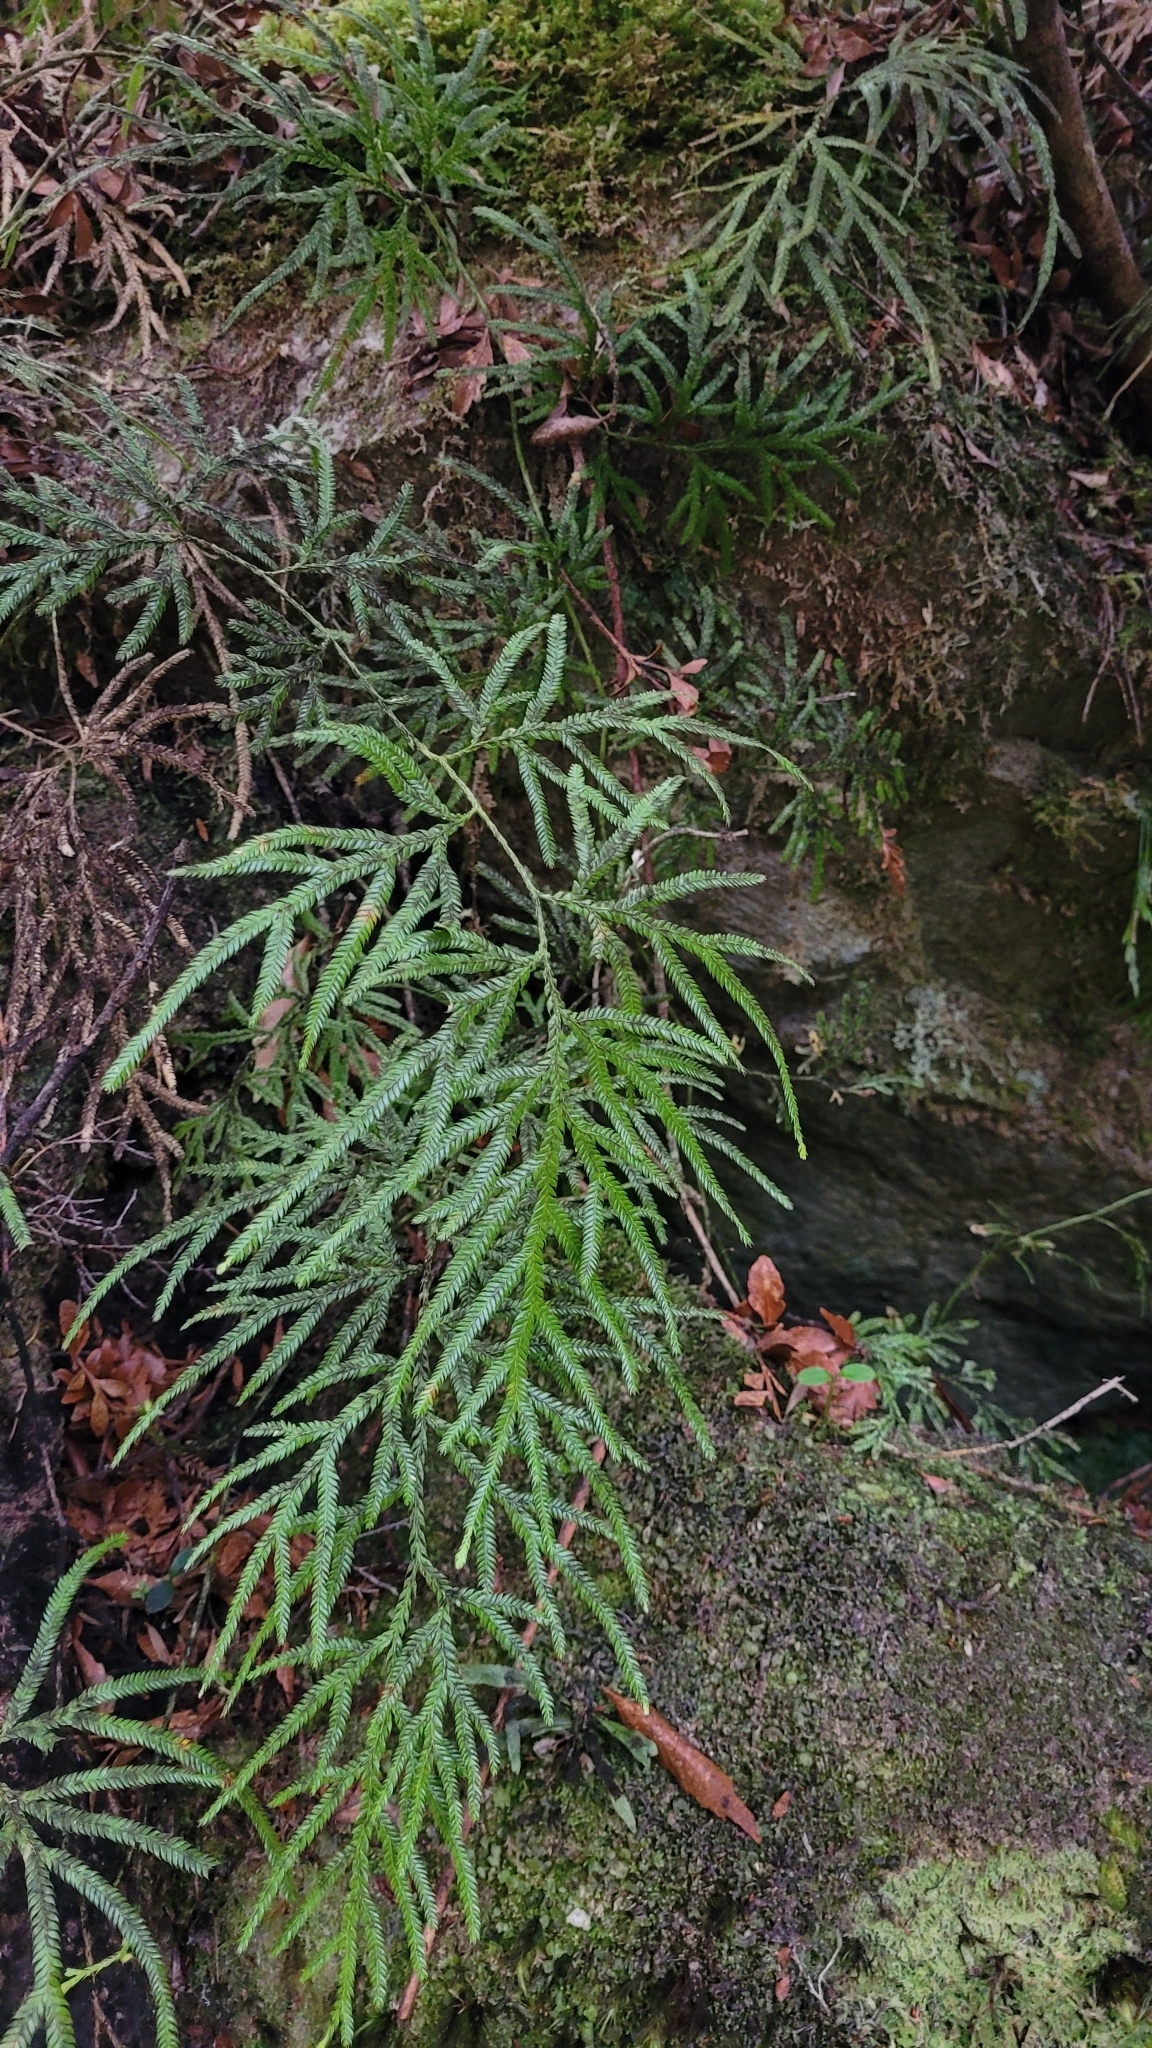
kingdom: Plantae
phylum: Tracheophyta
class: Lycopodiopsida
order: Lycopodiales
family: Lycopodiaceae
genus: Lycopodium
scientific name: Lycopodium volubile
